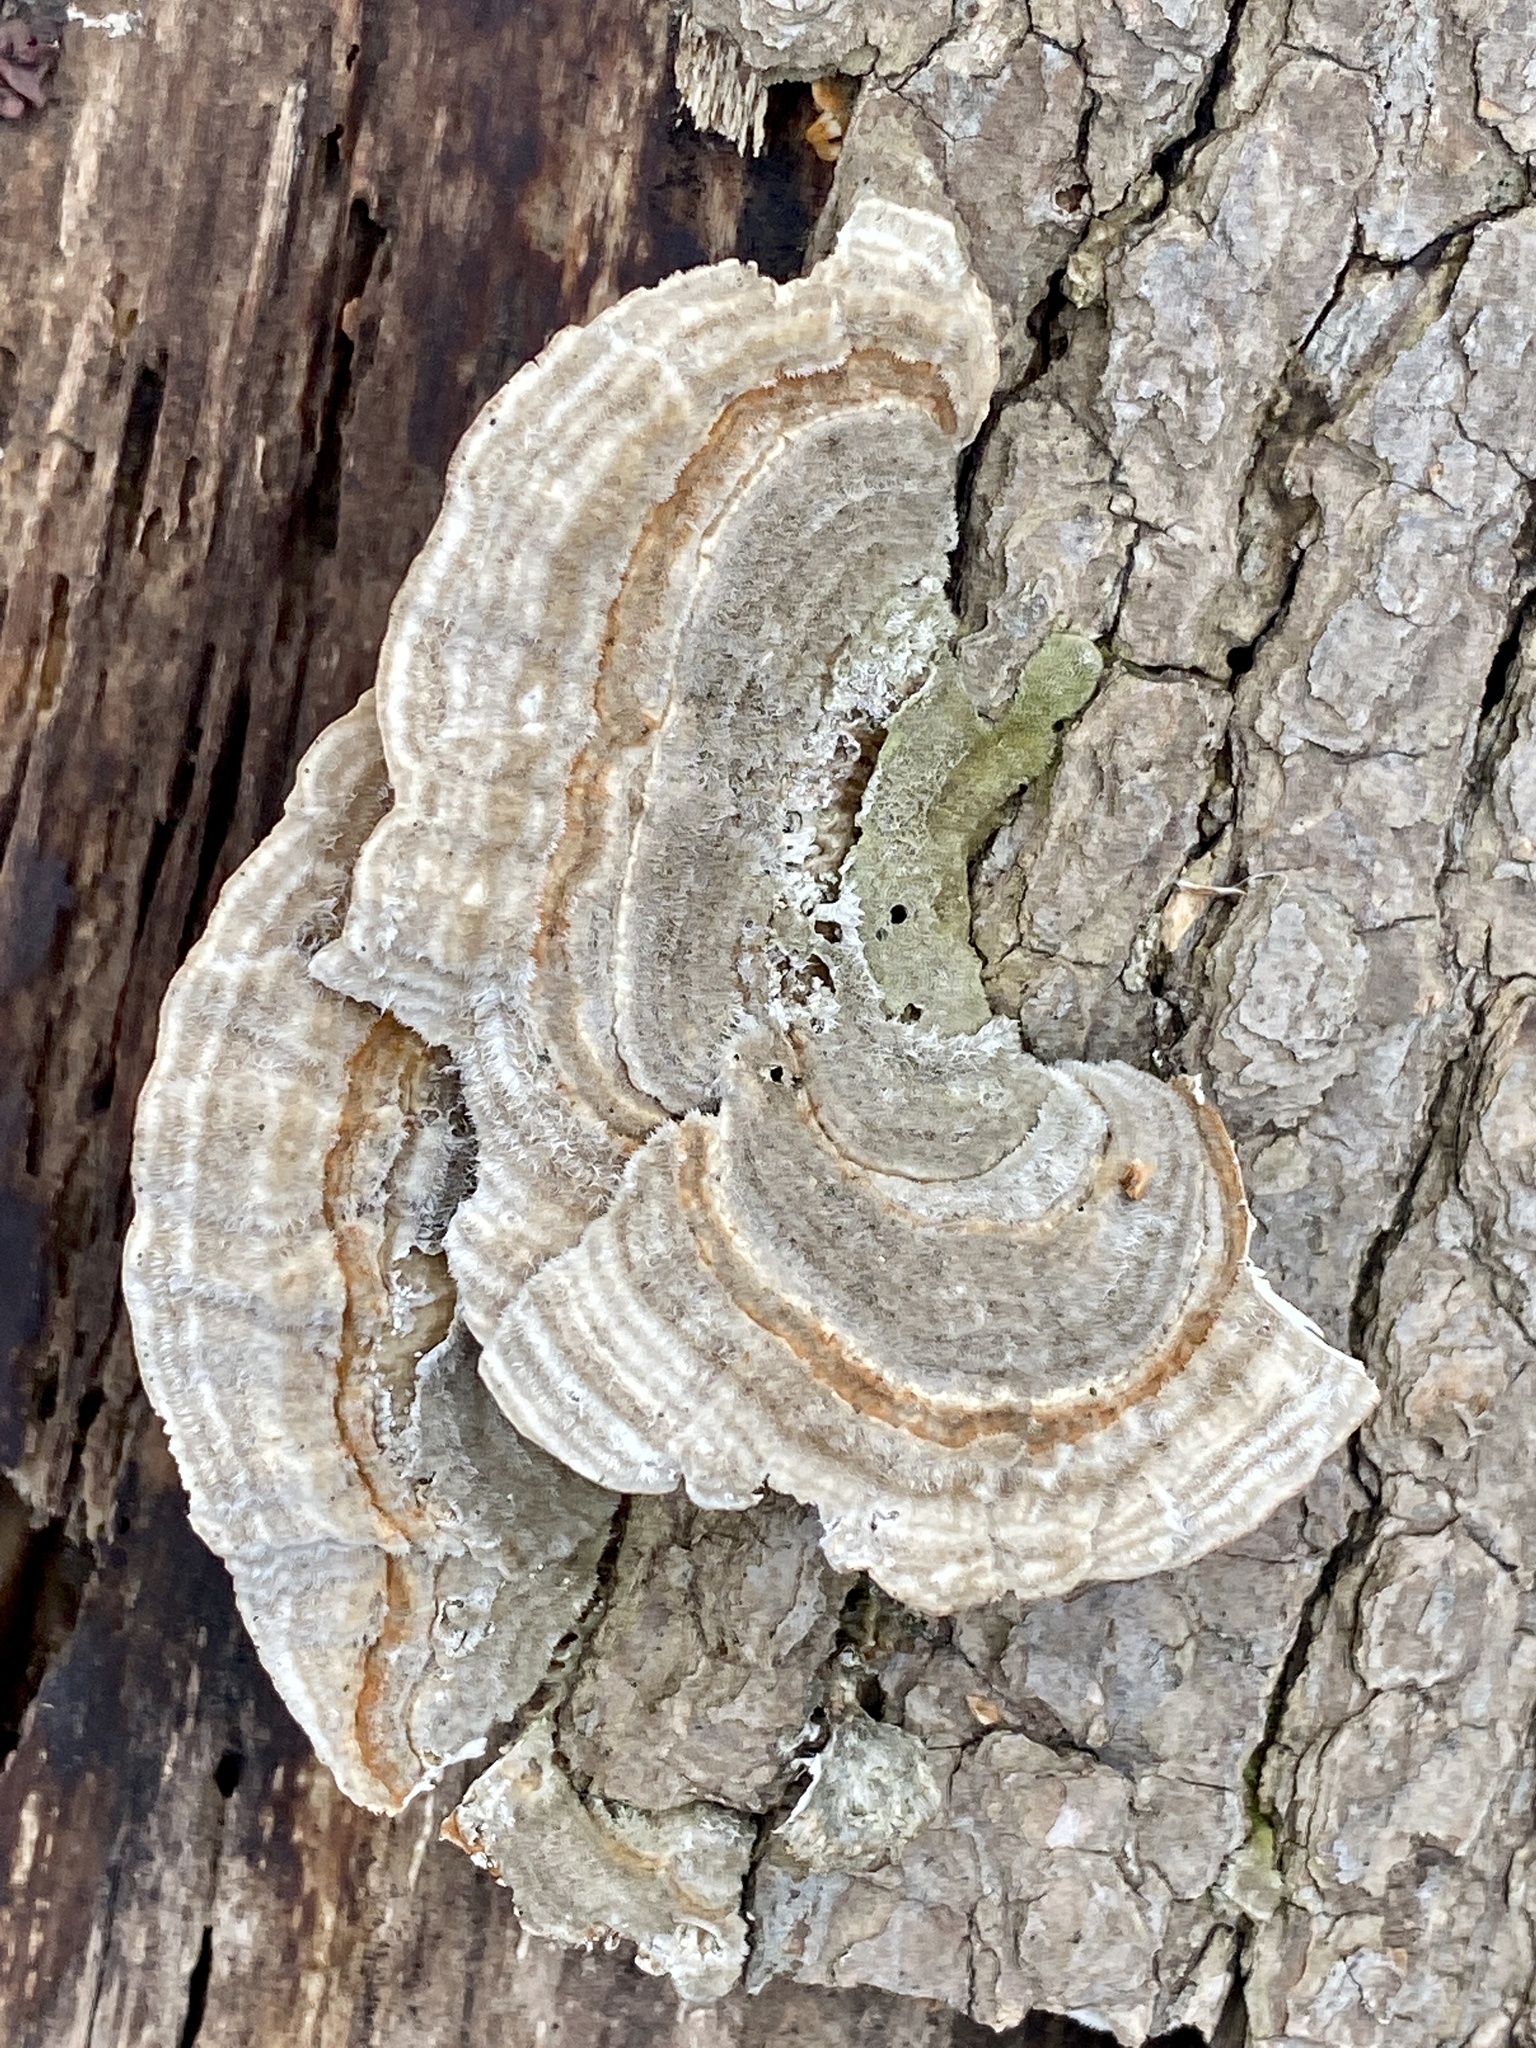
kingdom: Fungi
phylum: Basidiomycota
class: Agaricomycetes
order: Polyporales
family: Polyporaceae
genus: Lenzites
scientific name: Lenzites betulinus
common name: Birch mazegill
